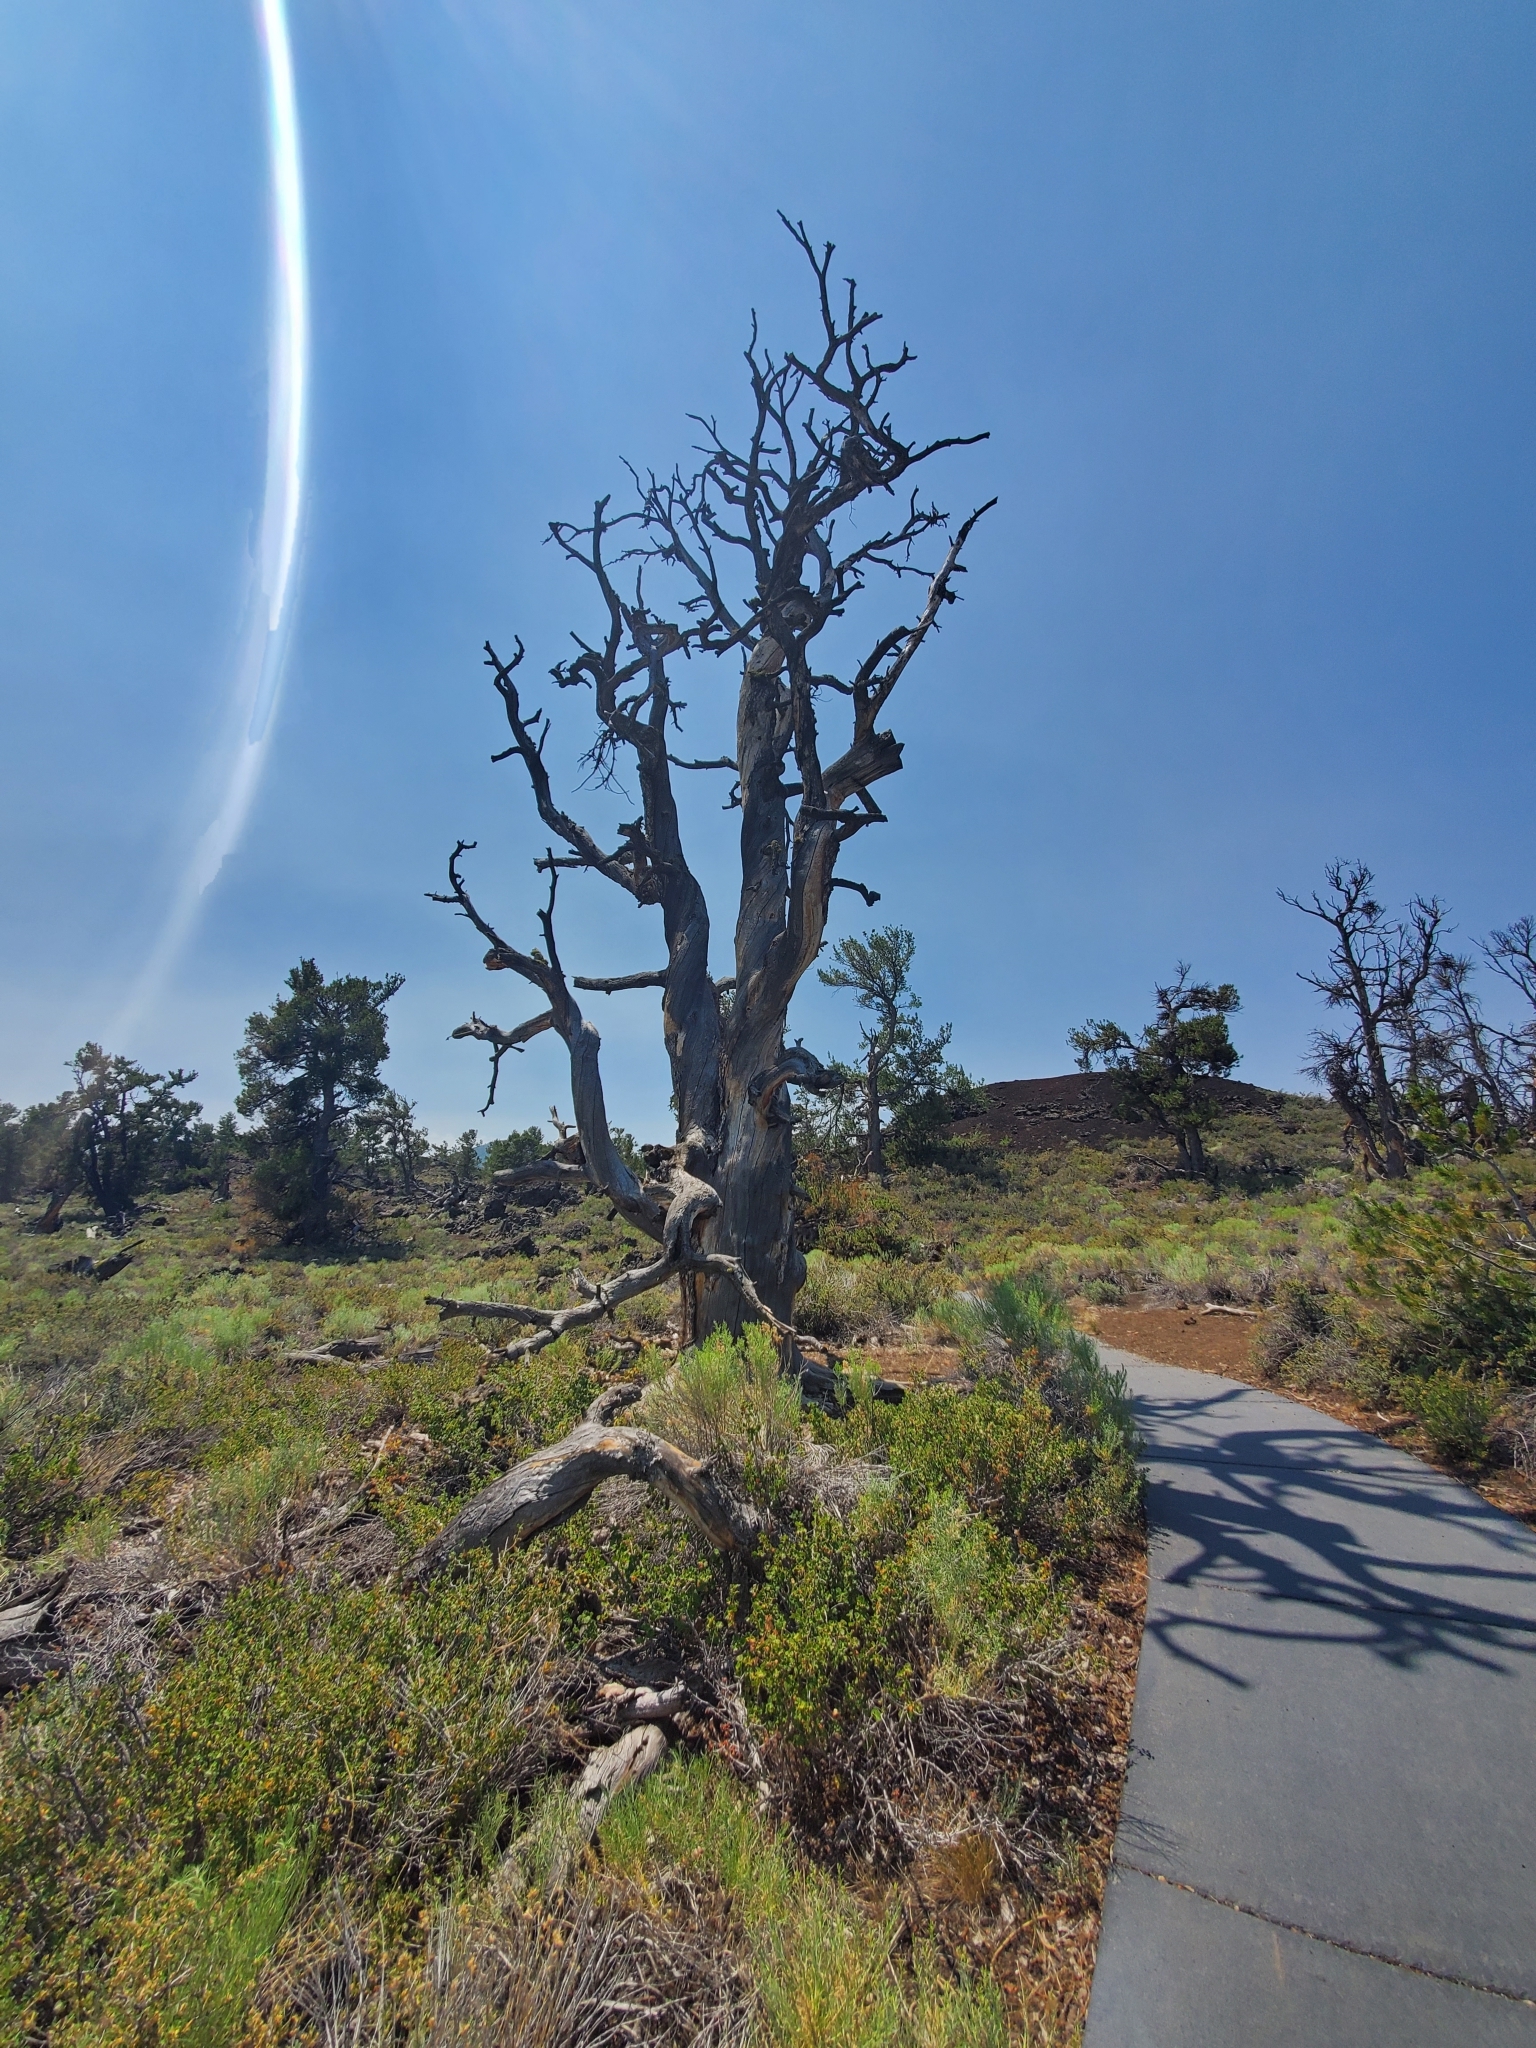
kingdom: Plantae
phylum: Tracheophyta
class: Pinopsida
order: Pinales
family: Pinaceae
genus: Pinus
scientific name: Pinus flexilis
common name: Limber pine
